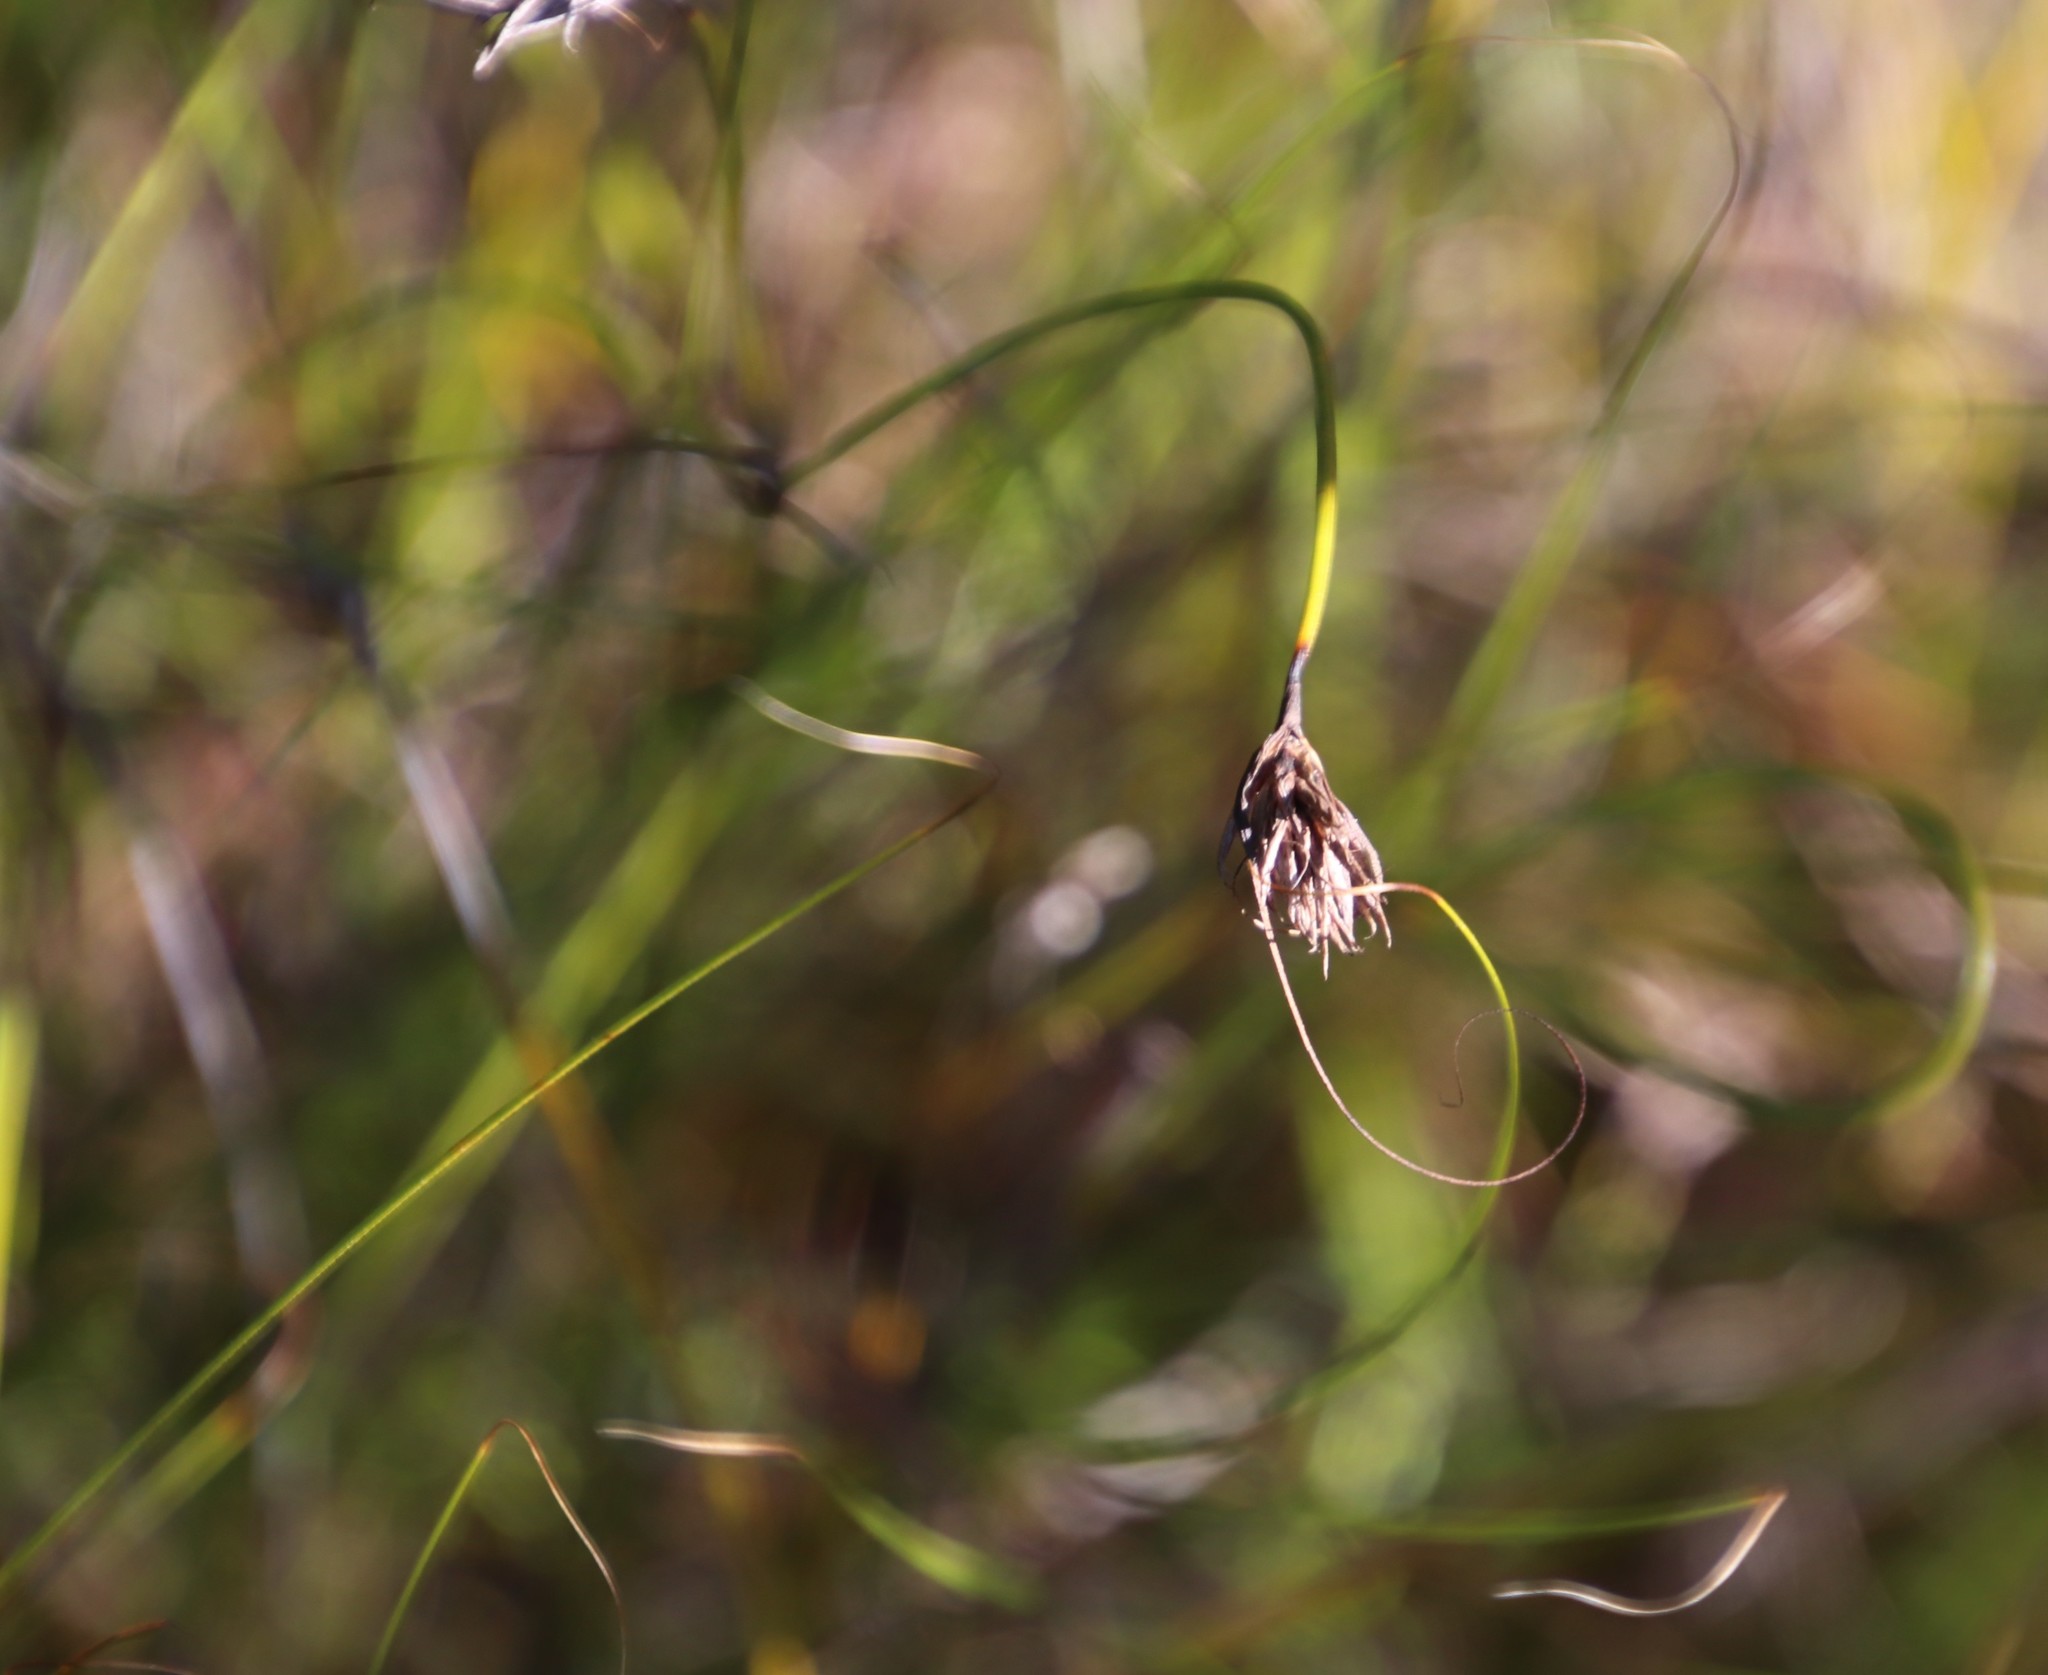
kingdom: Plantae
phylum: Tracheophyta
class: Liliopsida
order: Poales
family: Cyperaceae
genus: Tetraria
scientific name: Tetraria crinifolia
